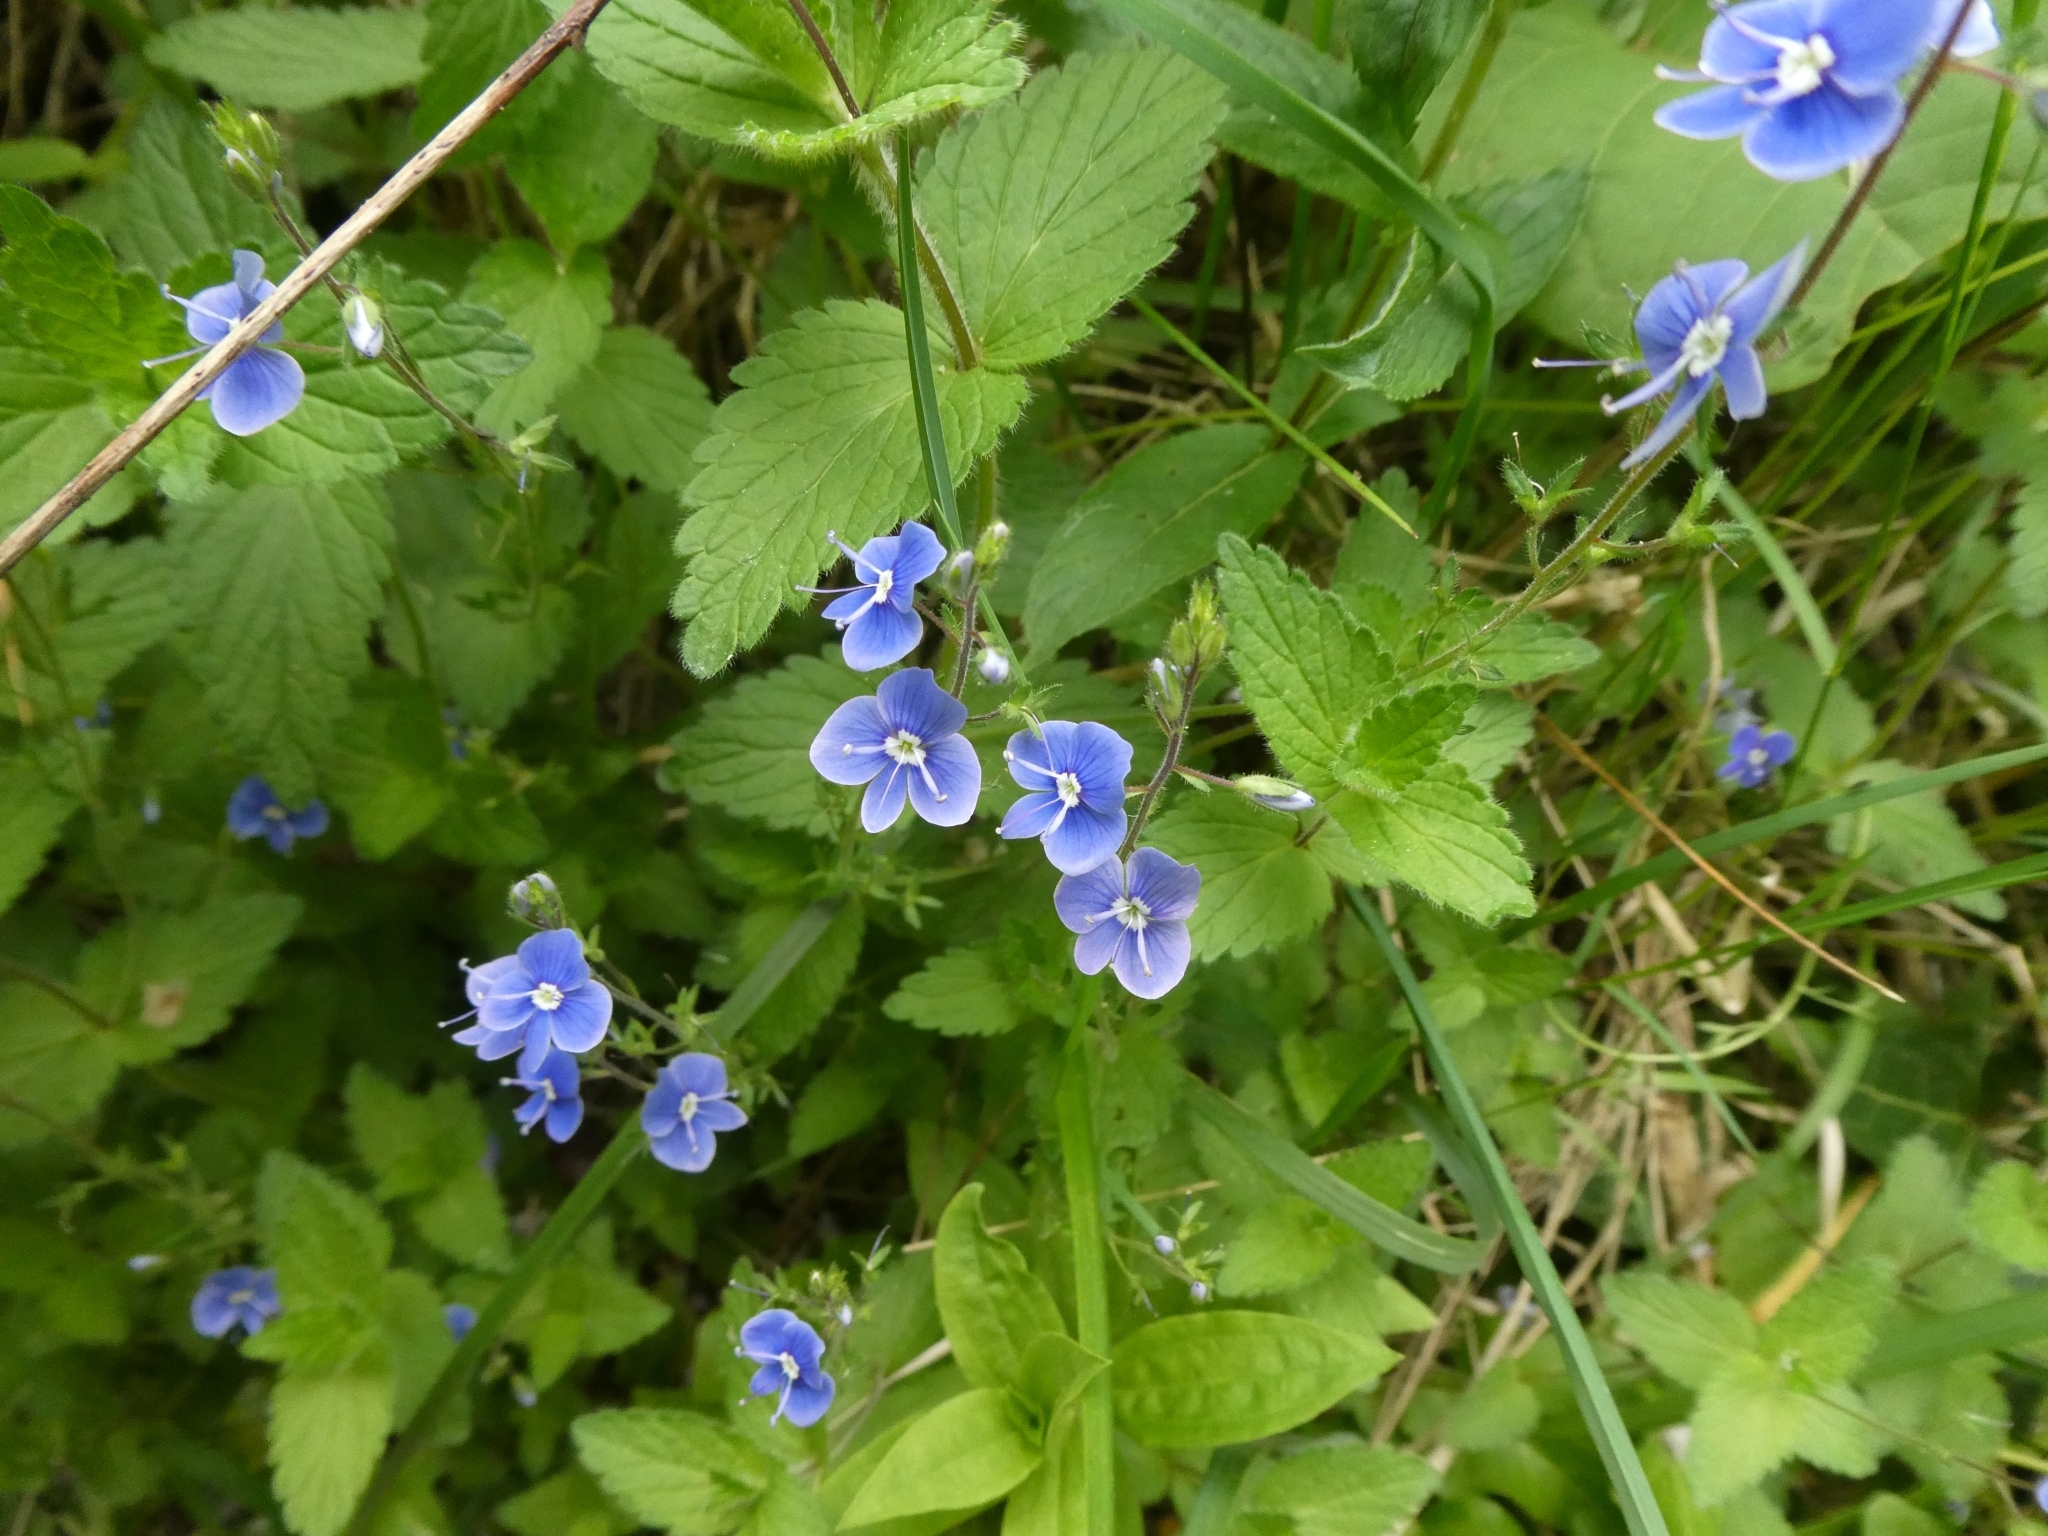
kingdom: Plantae
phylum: Tracheophyta
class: Magnoliopsida
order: Lamiales
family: Plantaginaceae
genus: Veronica
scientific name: Veronica chamaedrys
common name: Germander speedwell
